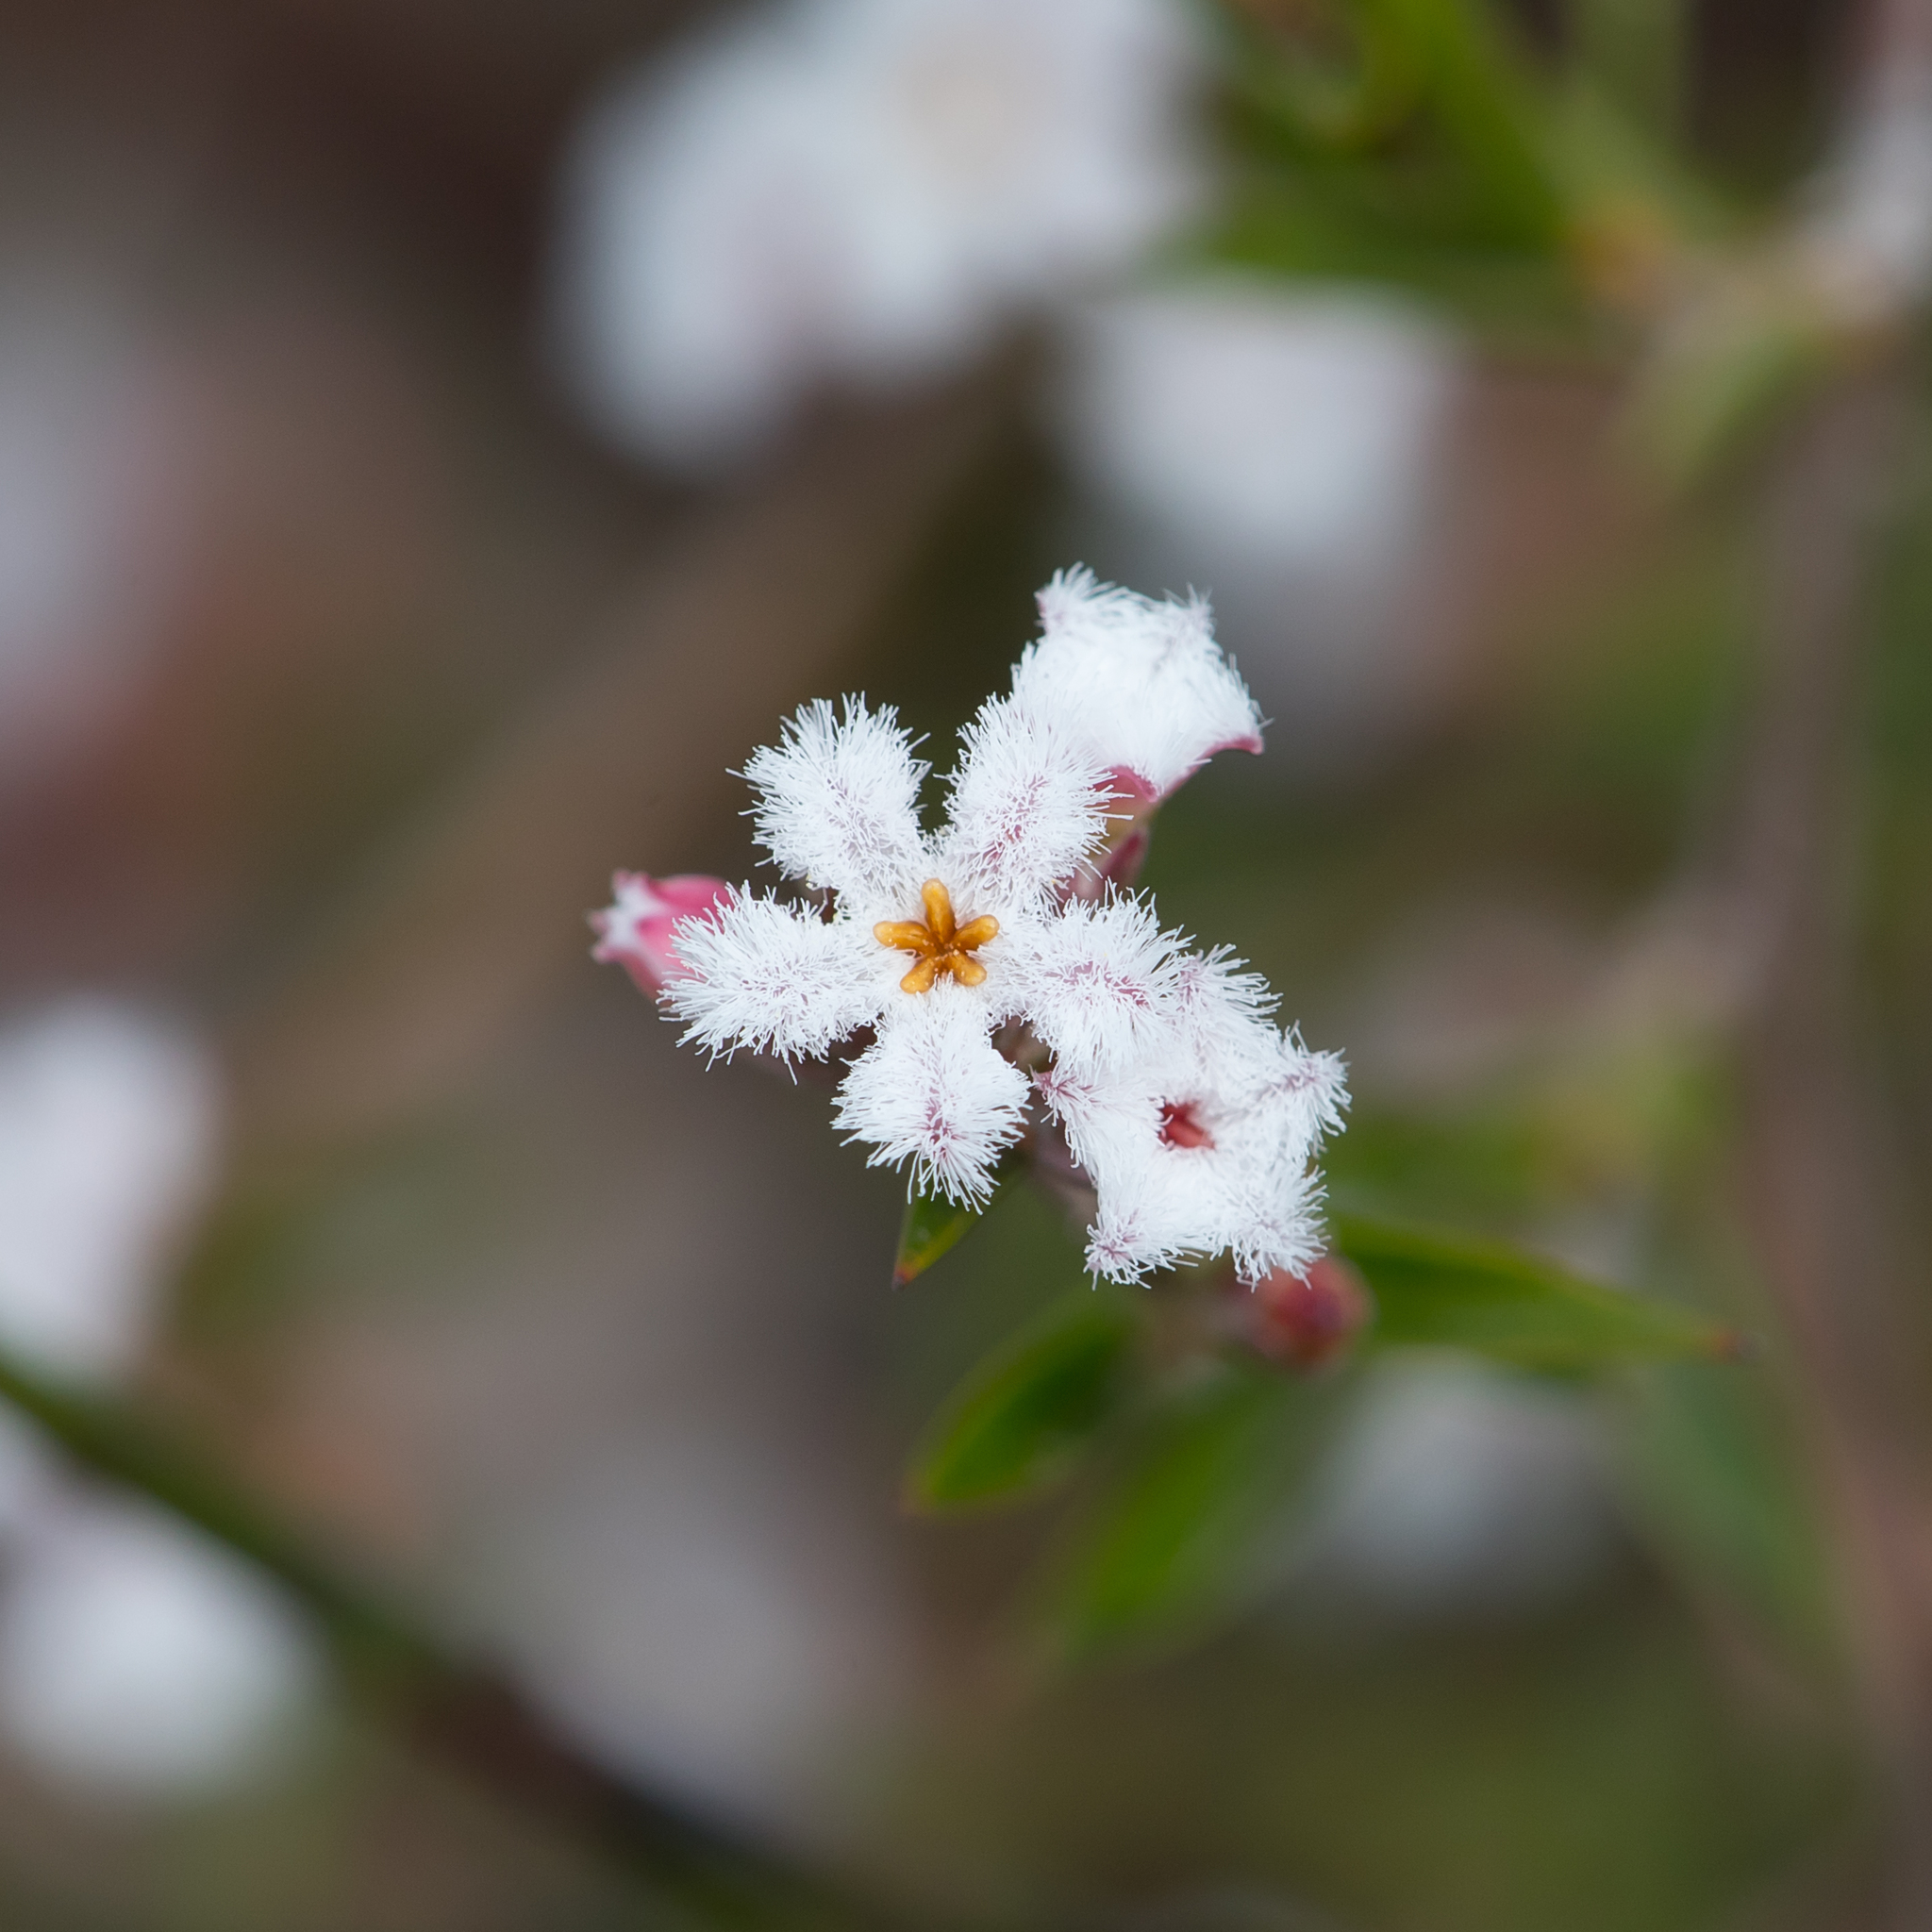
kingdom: Plantae
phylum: Tracheophyta
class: Magnoliopsida
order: Ericales
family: Ericaceae
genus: Leucopogon
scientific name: Leucopogon virgatus
